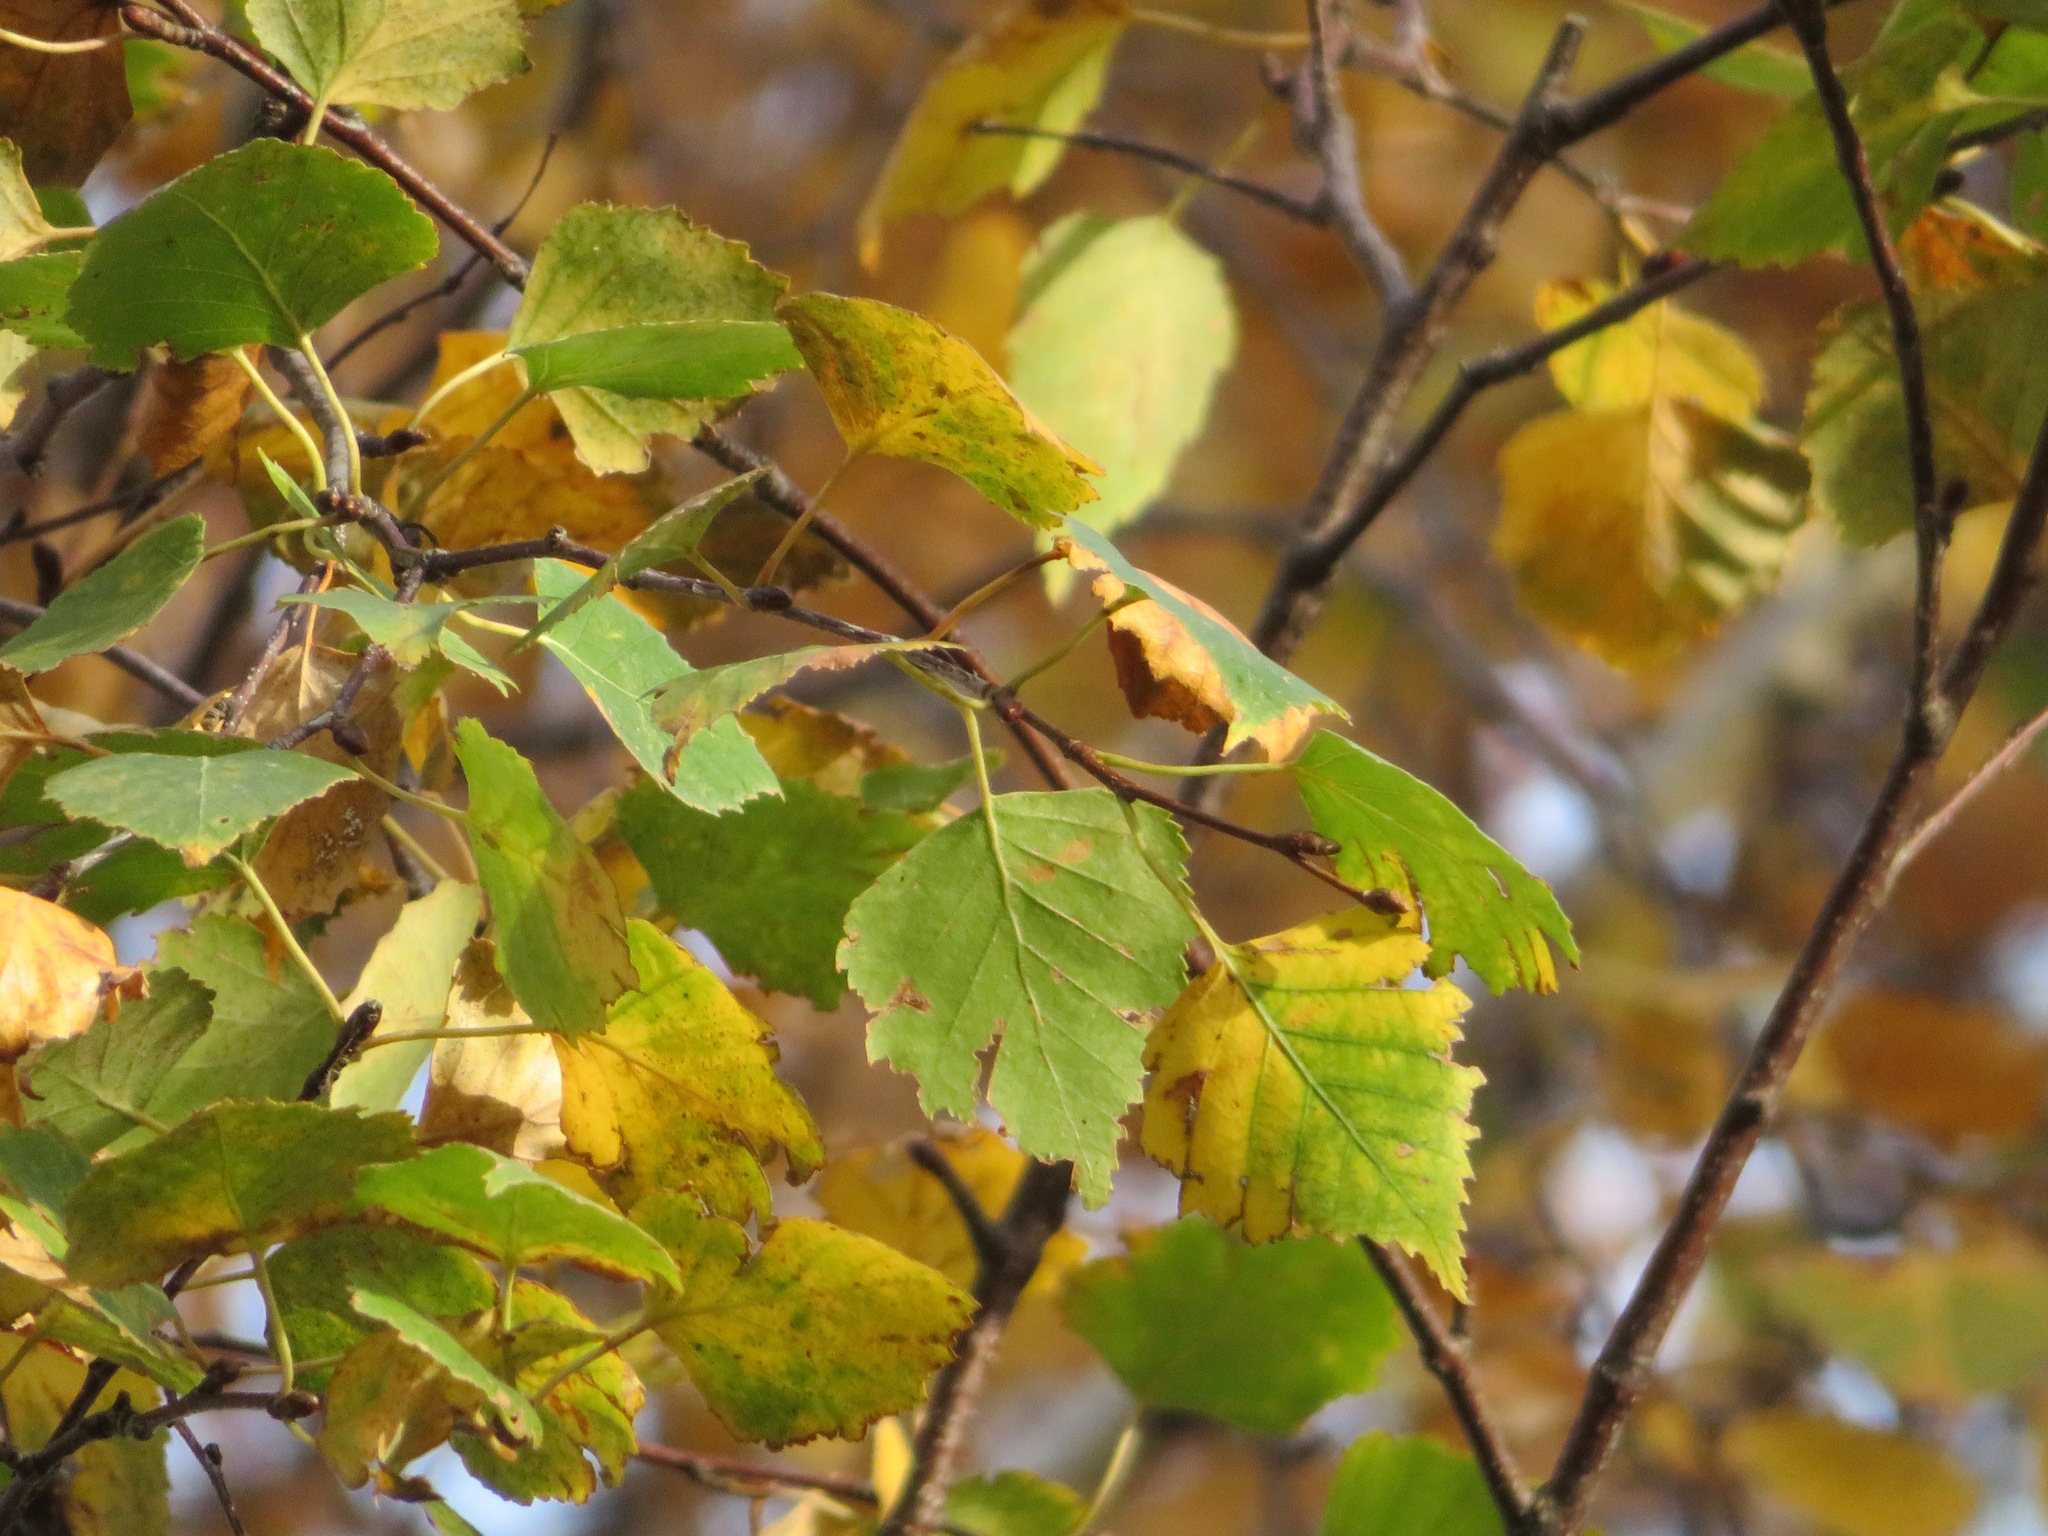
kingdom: Plantae
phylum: Tracheophyta
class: Magnoliopsida
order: Fagales
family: Betulaceae
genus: Betula
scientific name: Betula pendula
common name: Silver birch
